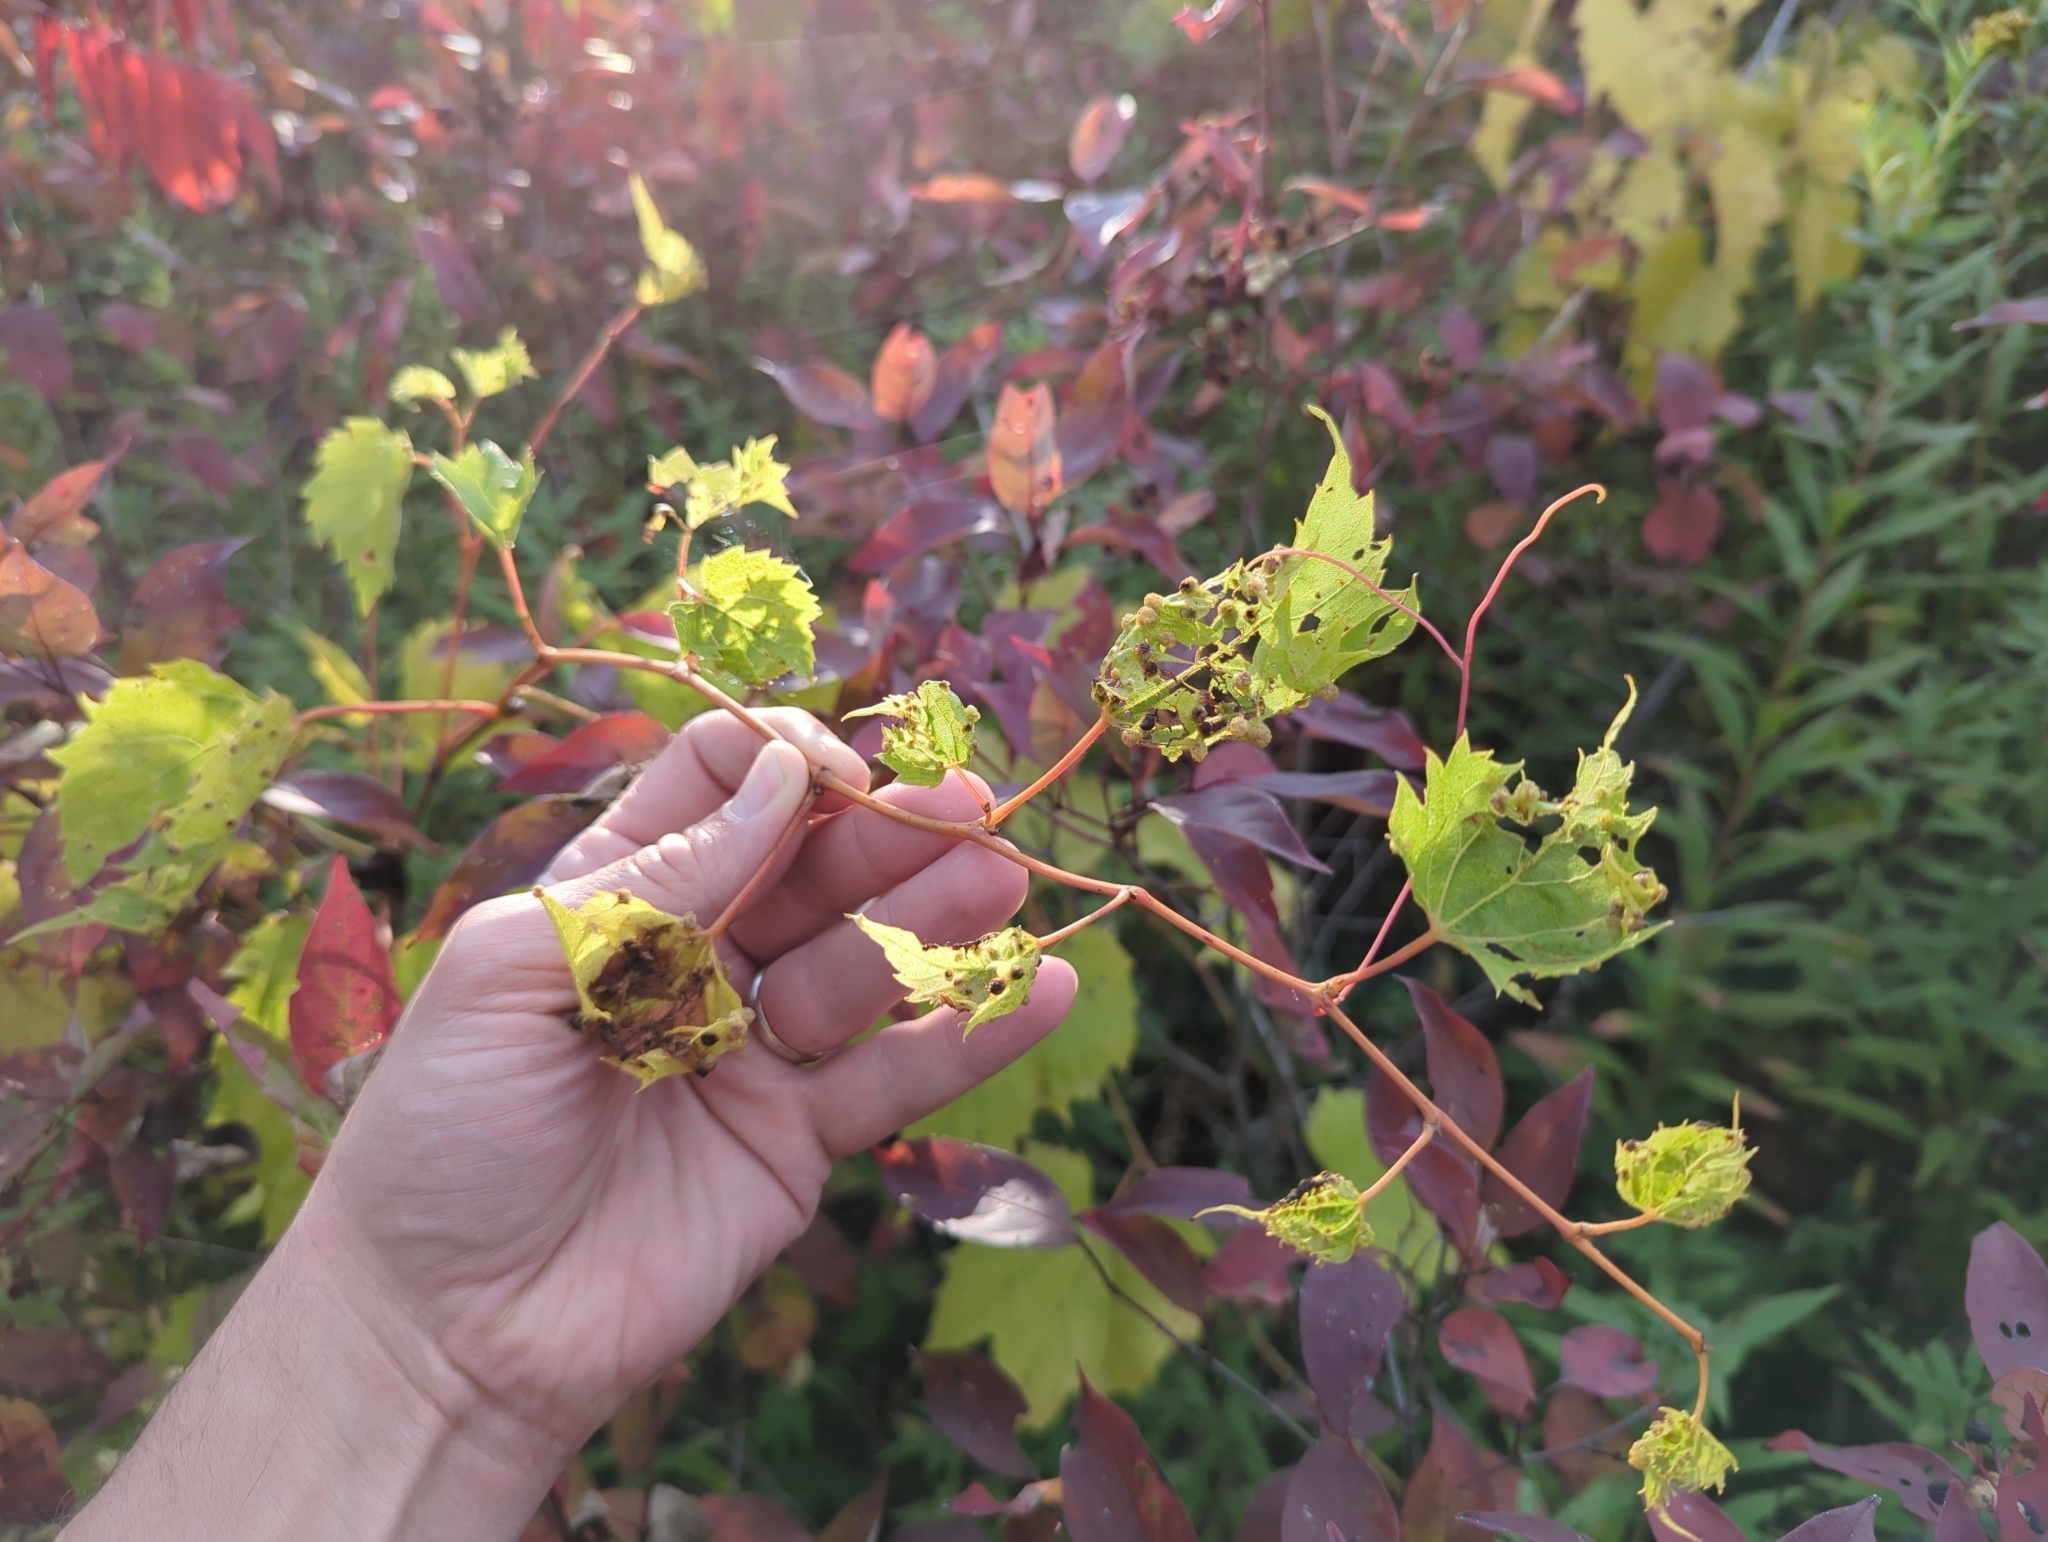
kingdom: Animalia
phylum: Arthropoda
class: Insecta
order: Hemiptera
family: Phylloxeridae
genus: Daktulosphaira
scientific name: Daktulosphaira vitifoliae
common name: Grape phylloxera
